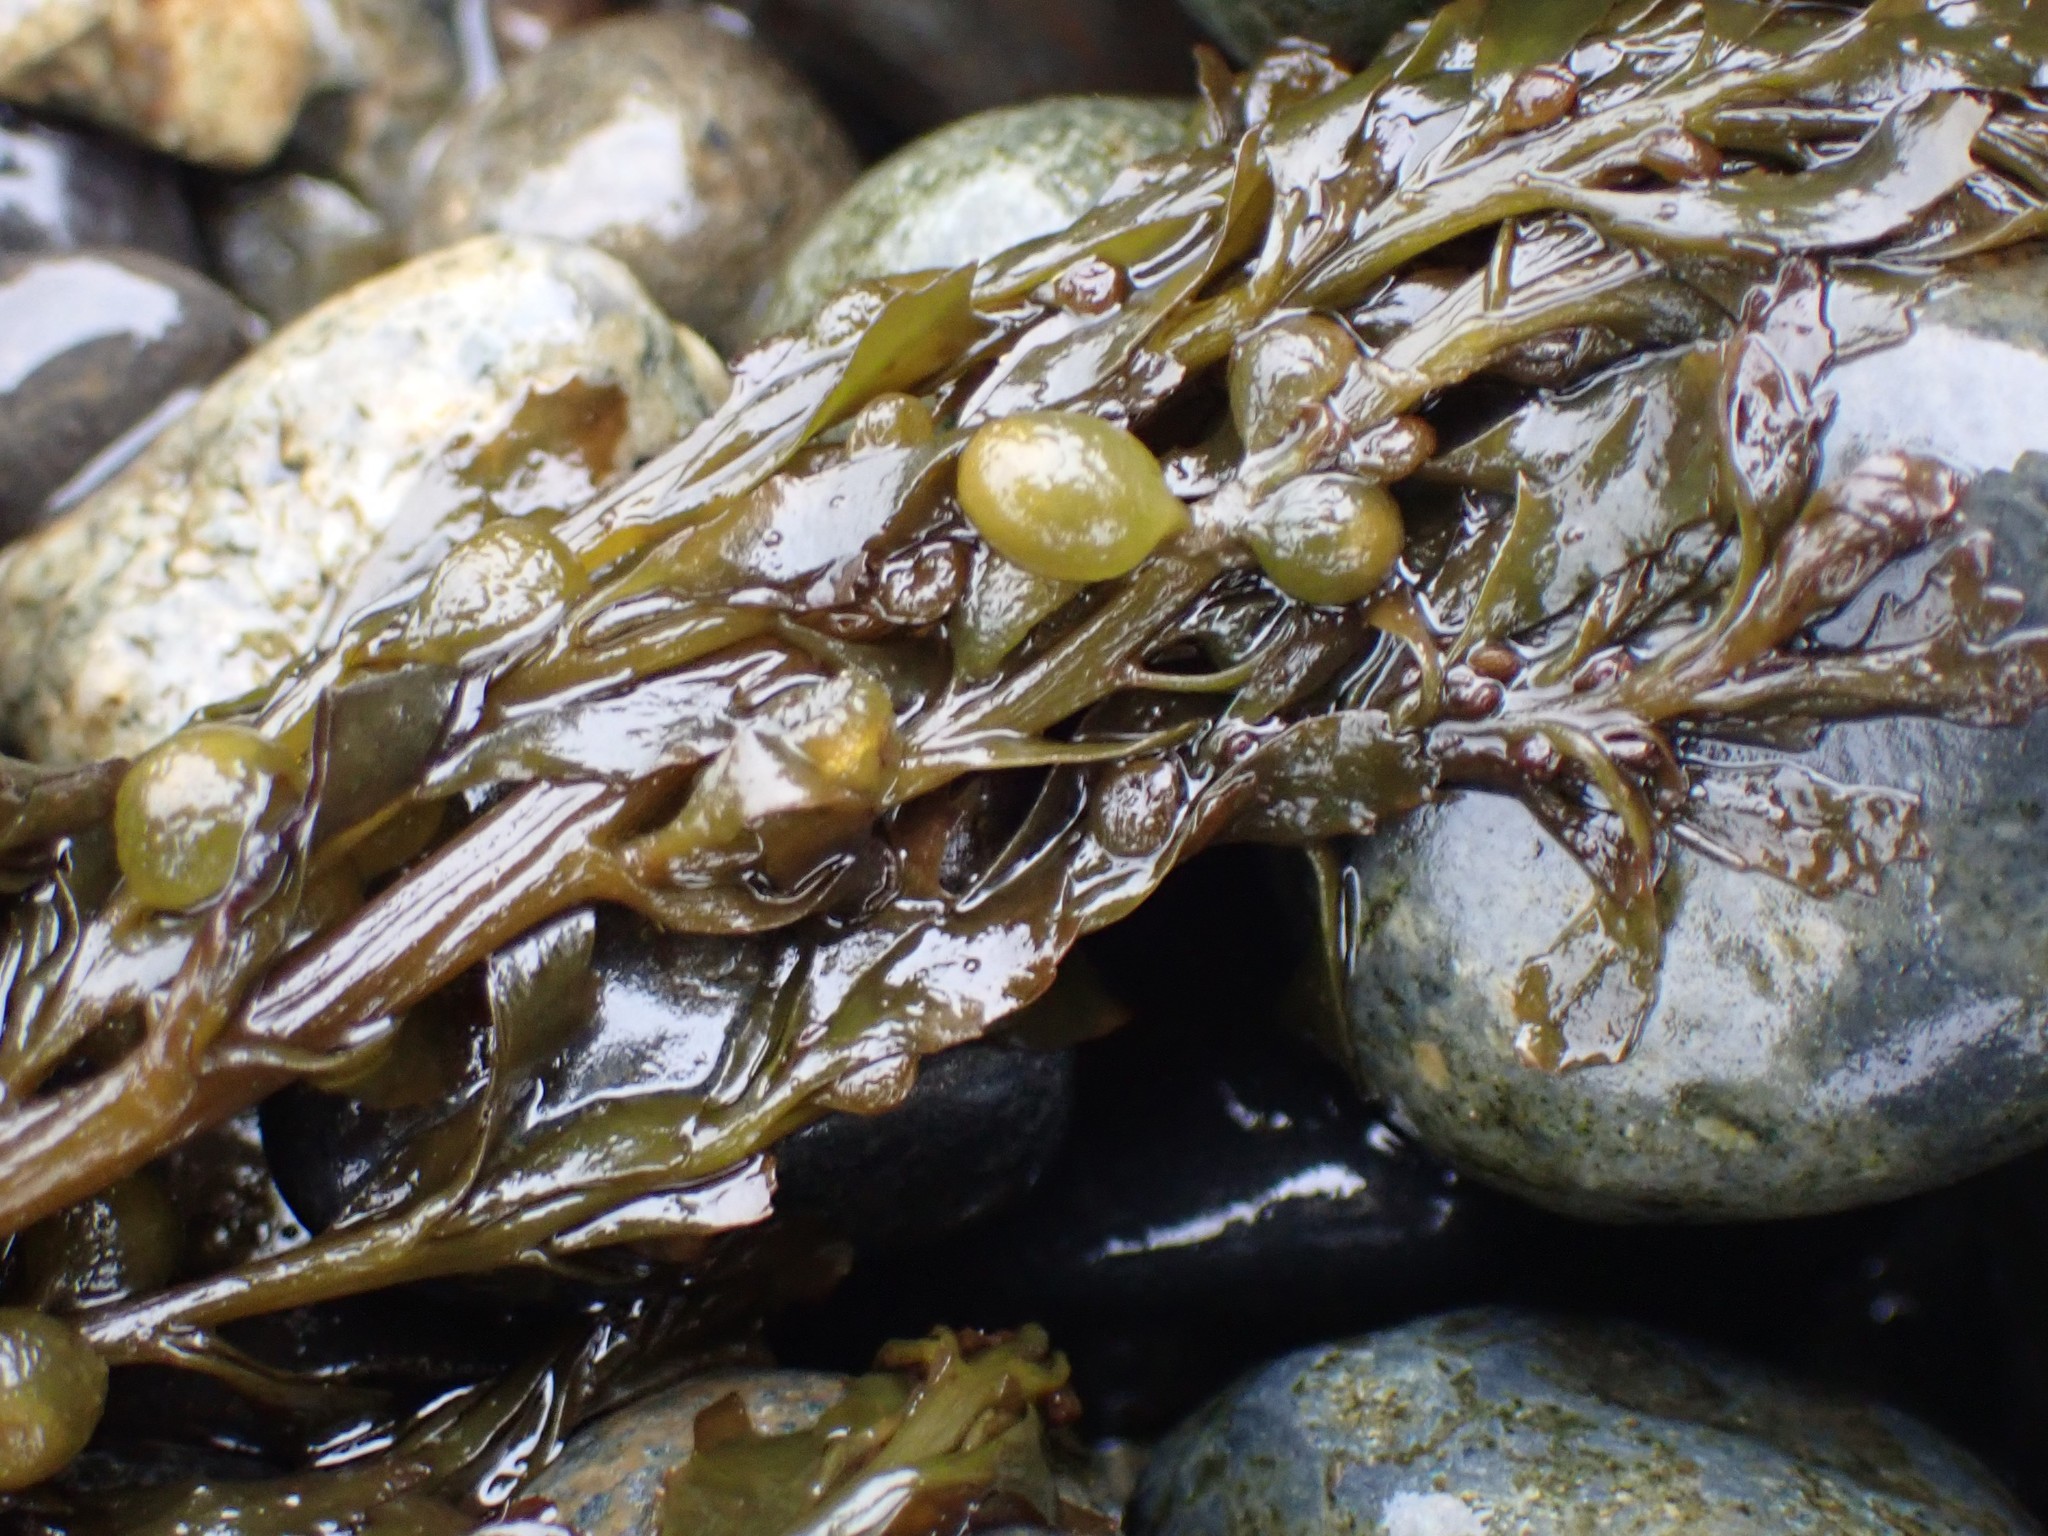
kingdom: Chromista
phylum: Ochrophyta
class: Phaeophyceae
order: Fucales
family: Sargassaceae
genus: Sargassum
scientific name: Sargassum muticum
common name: Japweed
